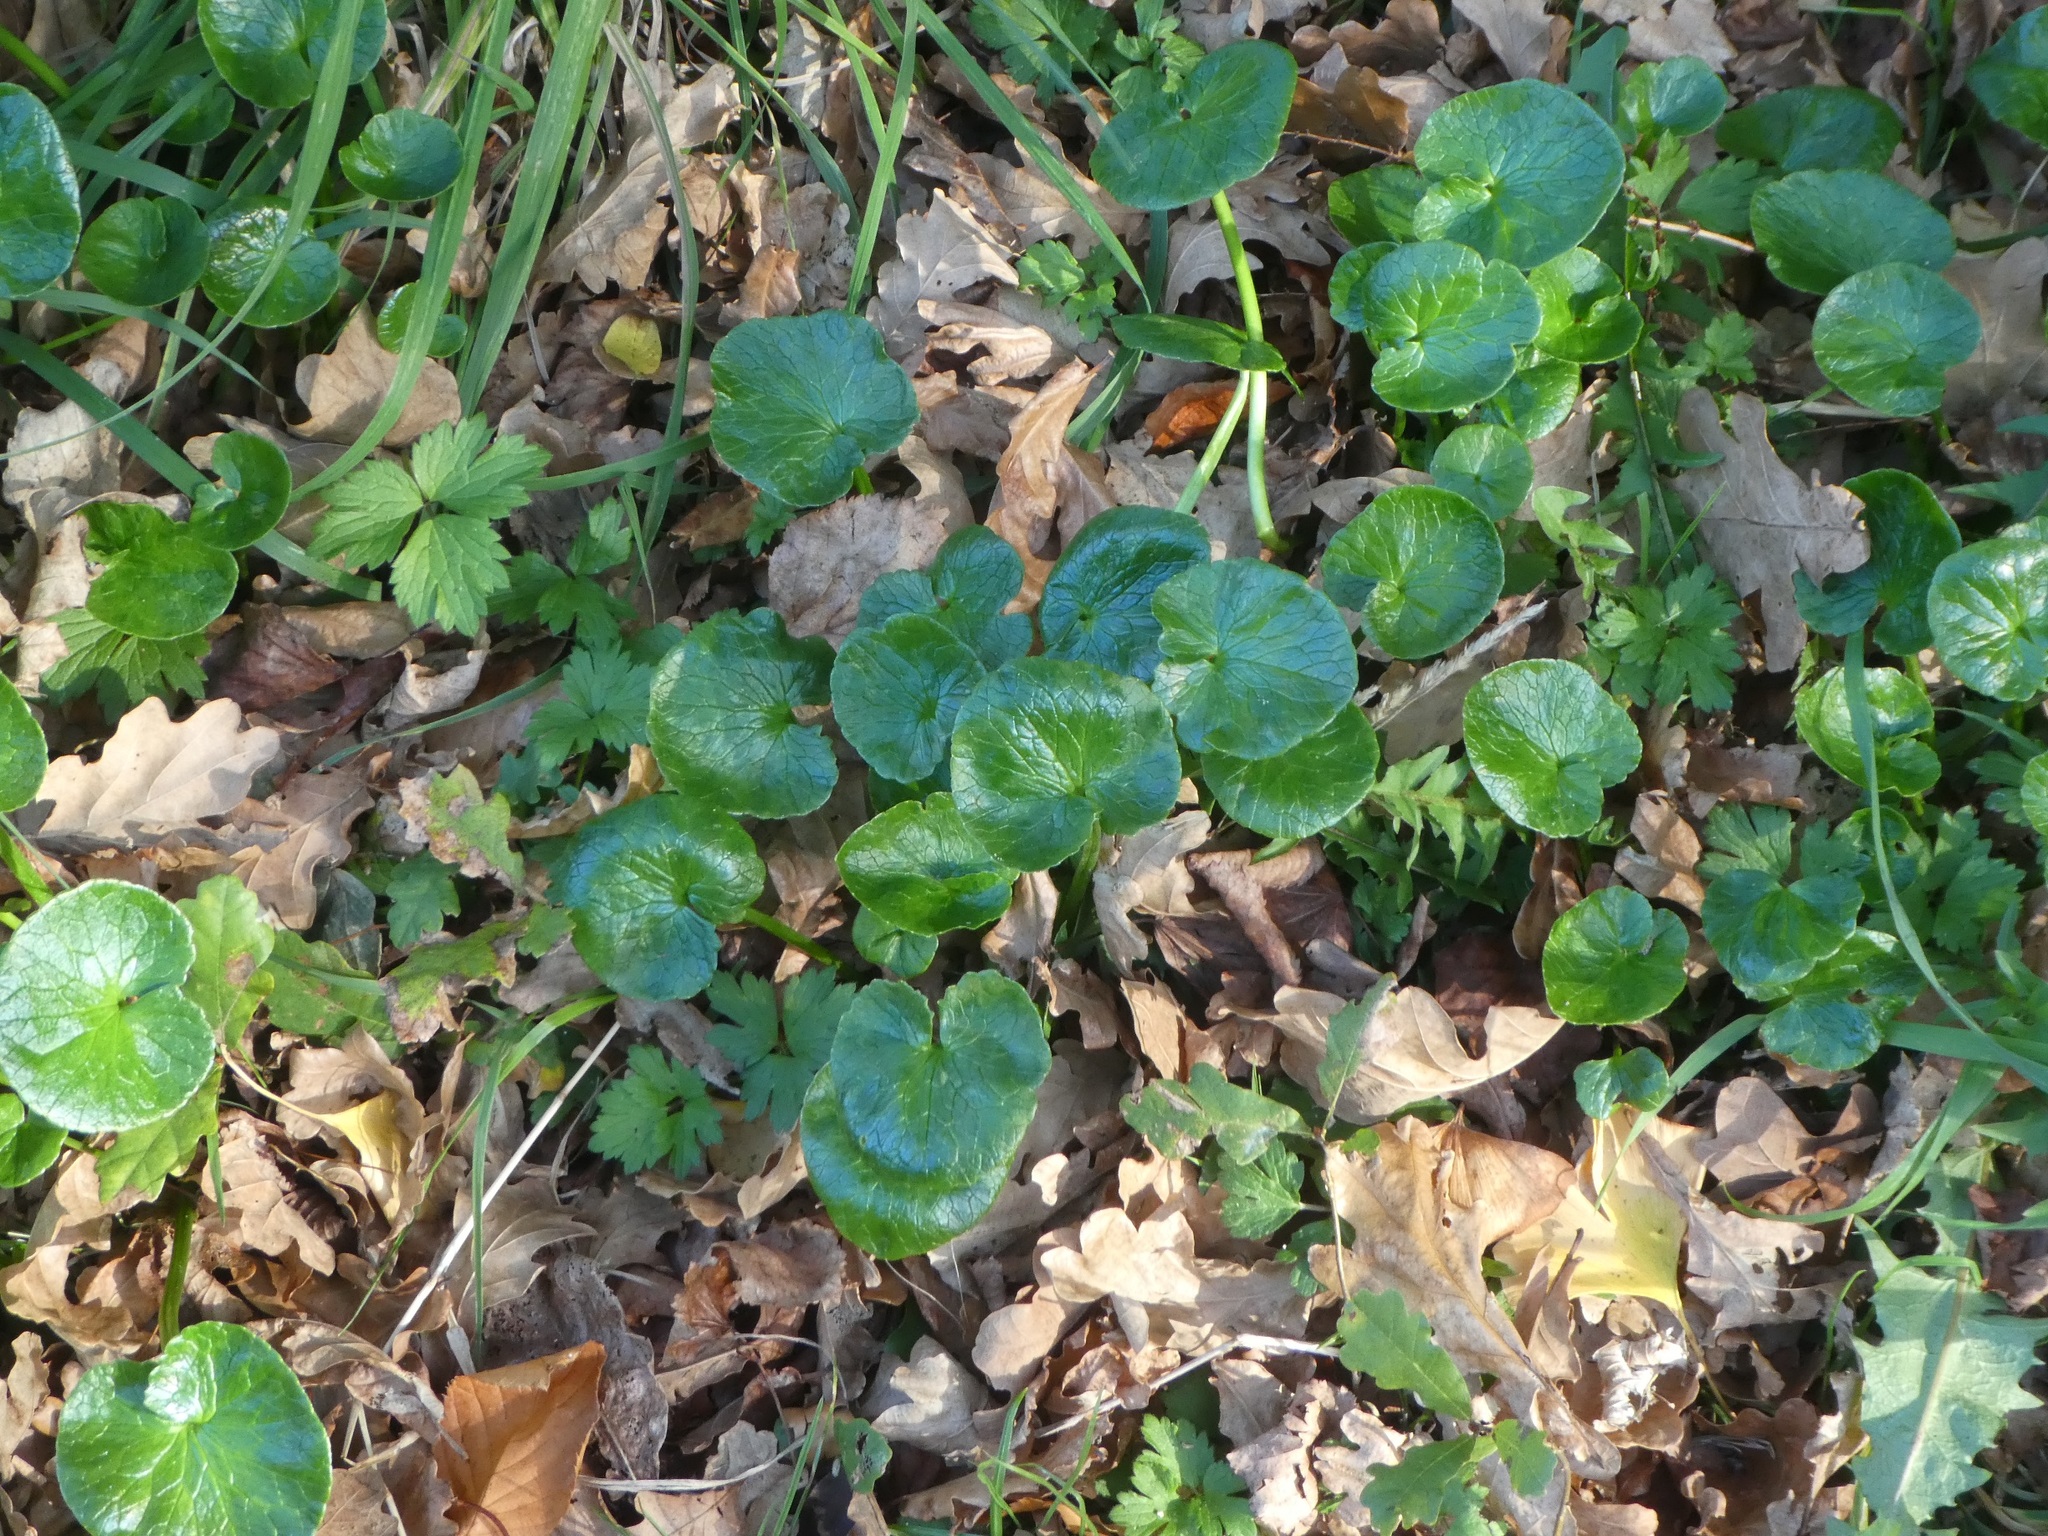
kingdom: Plantae
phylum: Tracheophyta
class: Magnoliopsida
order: Ranunculales
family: Ranunculaceae
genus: Ficaria
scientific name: Ficaria verna
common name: Lesser celandine
